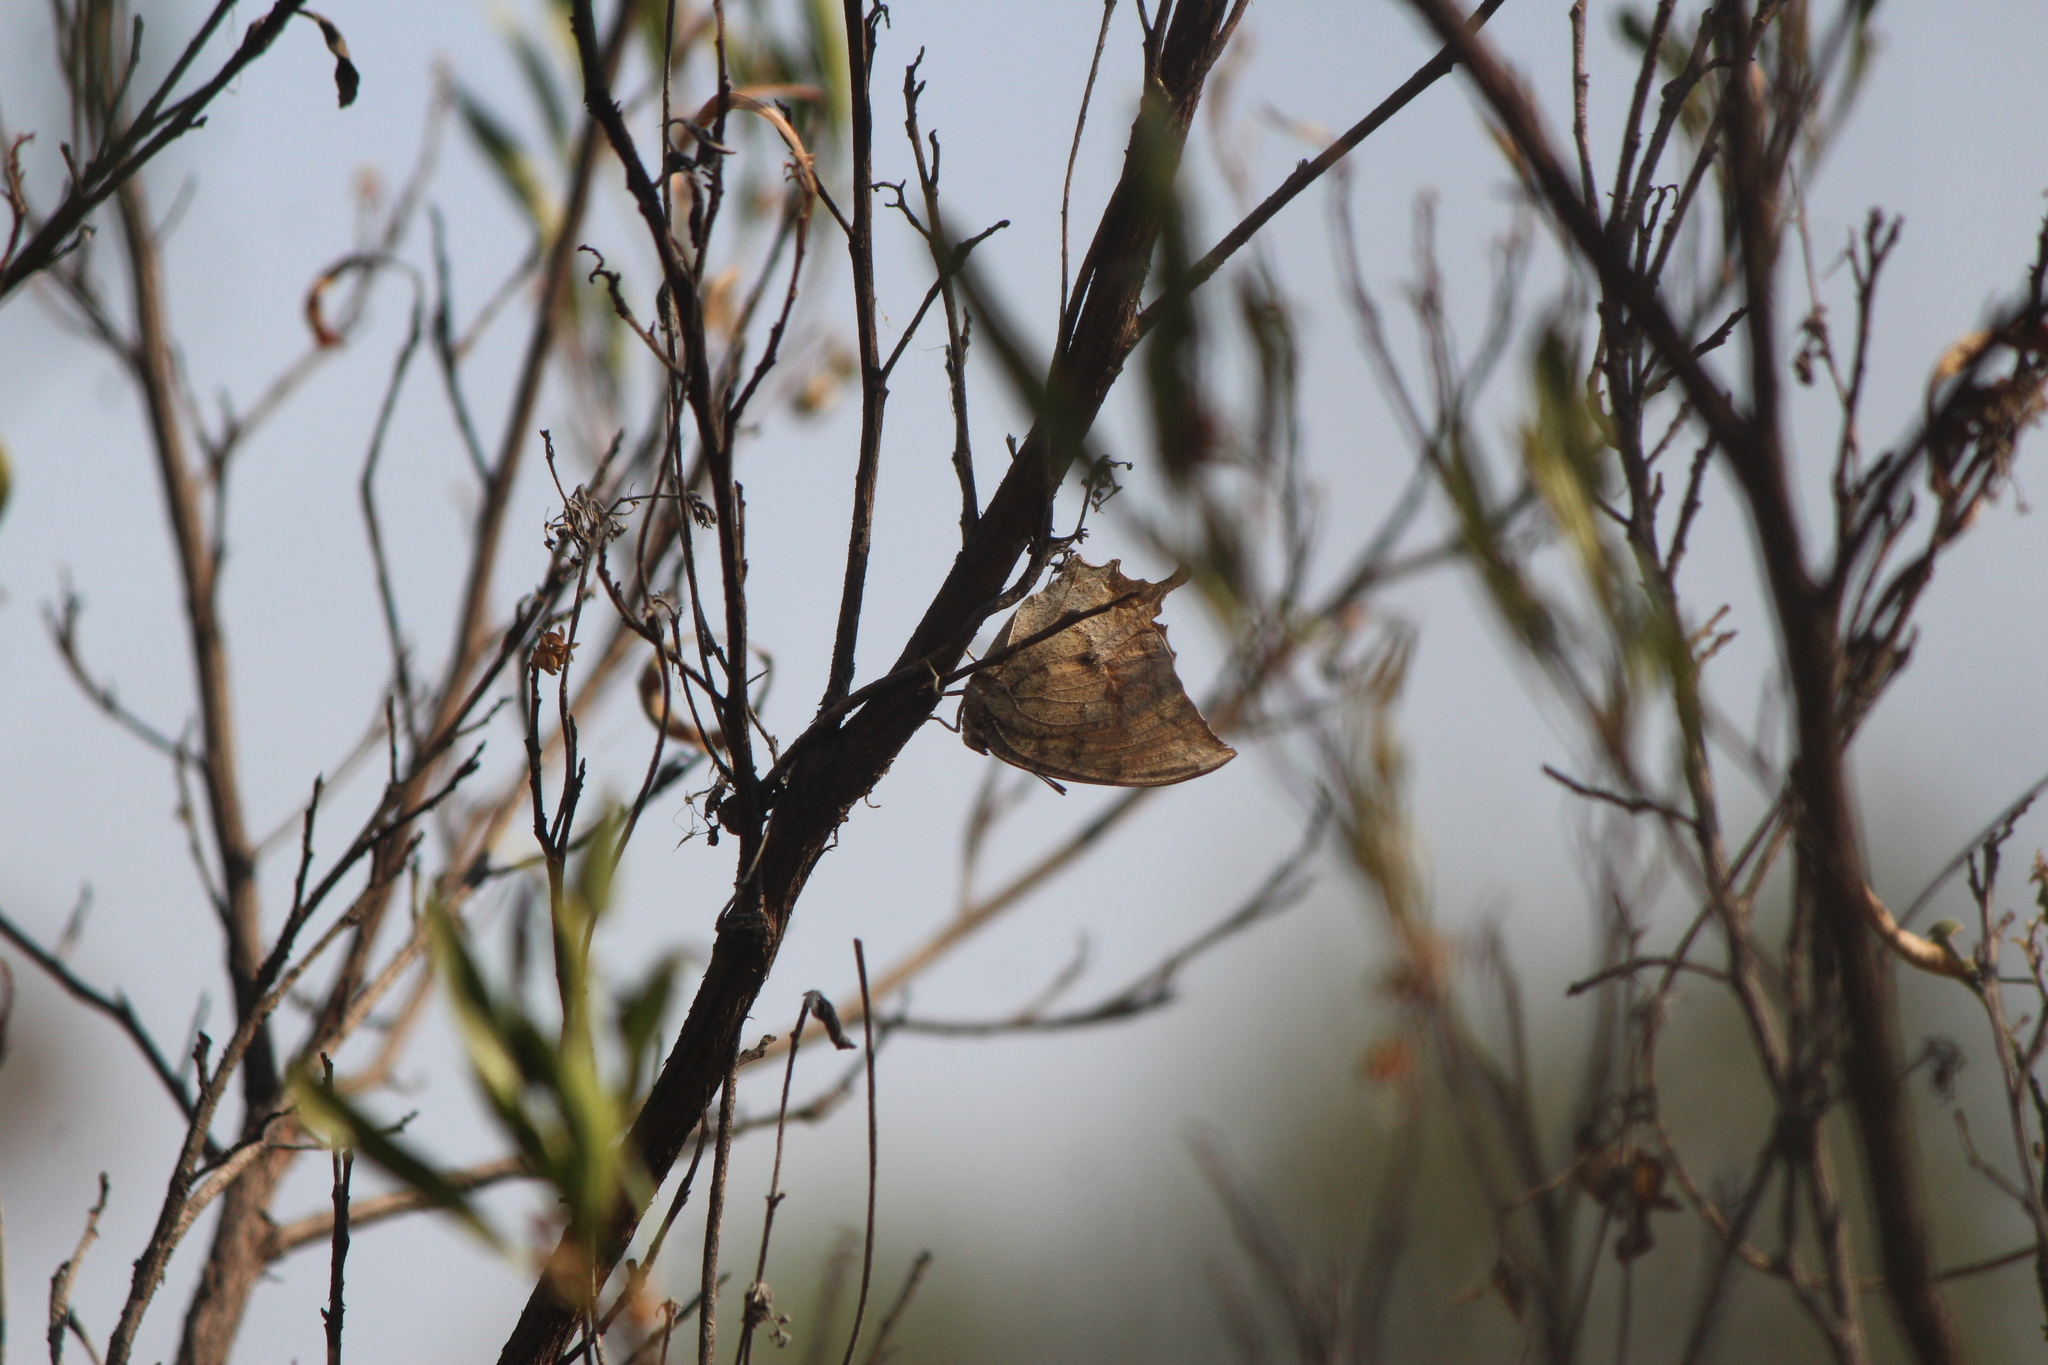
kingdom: Animalia
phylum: Arthropoda
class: Insecta
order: Lepidoptera
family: Nymphalidae
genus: Anaea
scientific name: Anaea aidea
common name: Tropical leafwing
